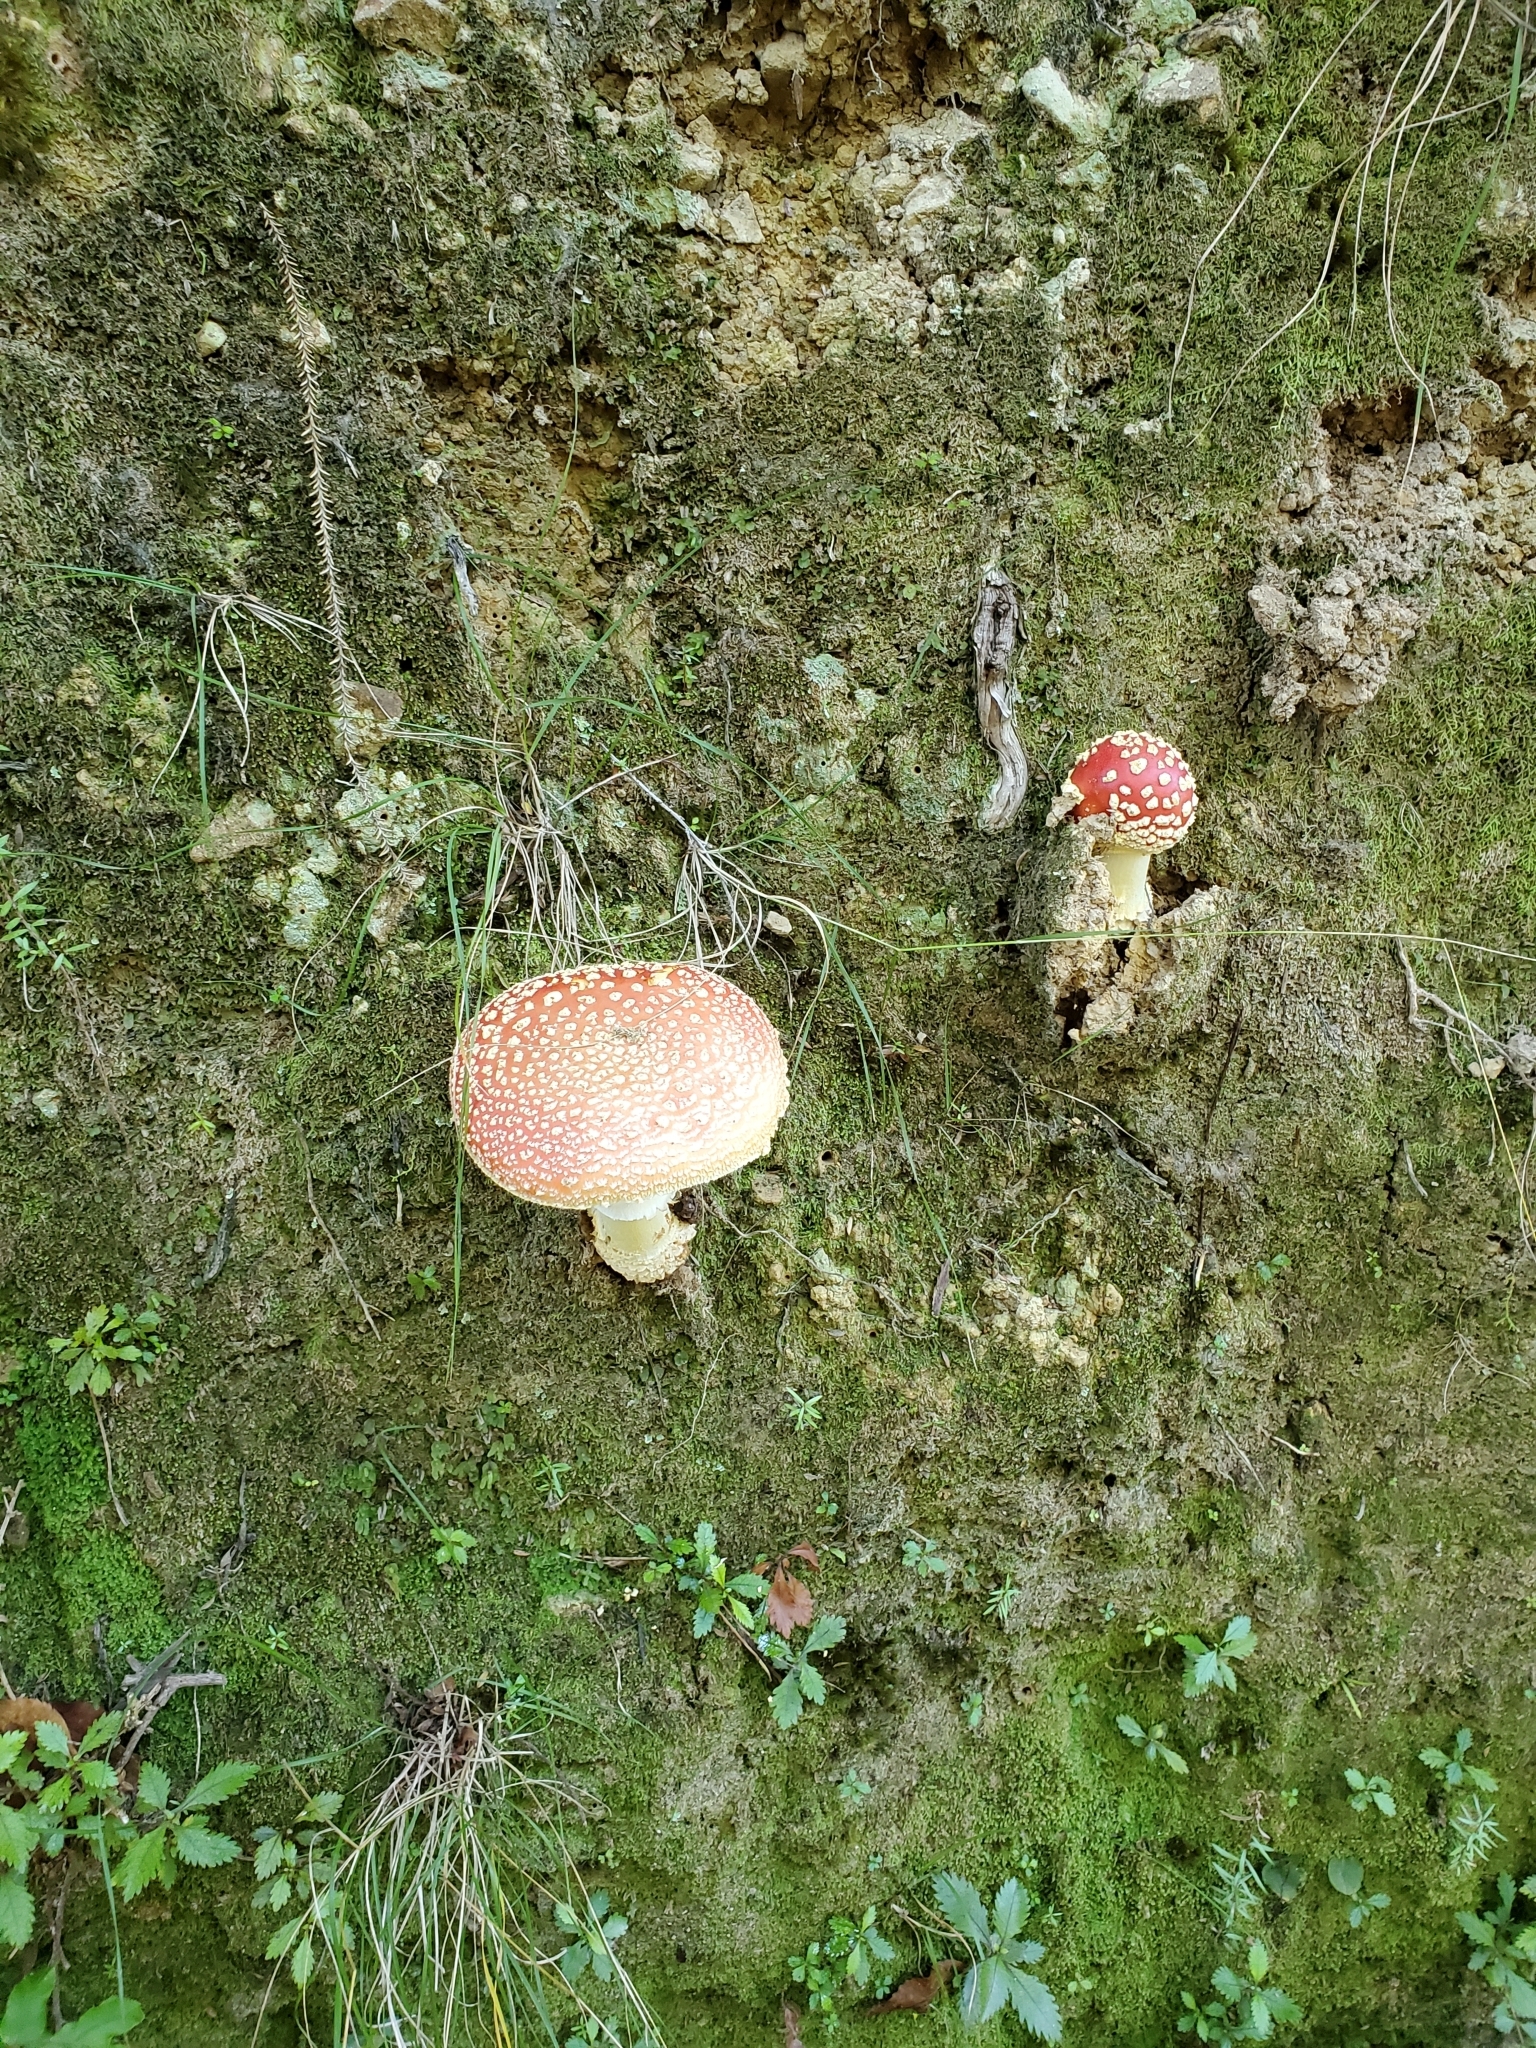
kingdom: Fungi
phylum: Basidiomycota
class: Agaricomycetes
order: Agaricales
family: Amanitaceae
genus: Amanita
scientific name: Amanita muscaria
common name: Fly agaric
